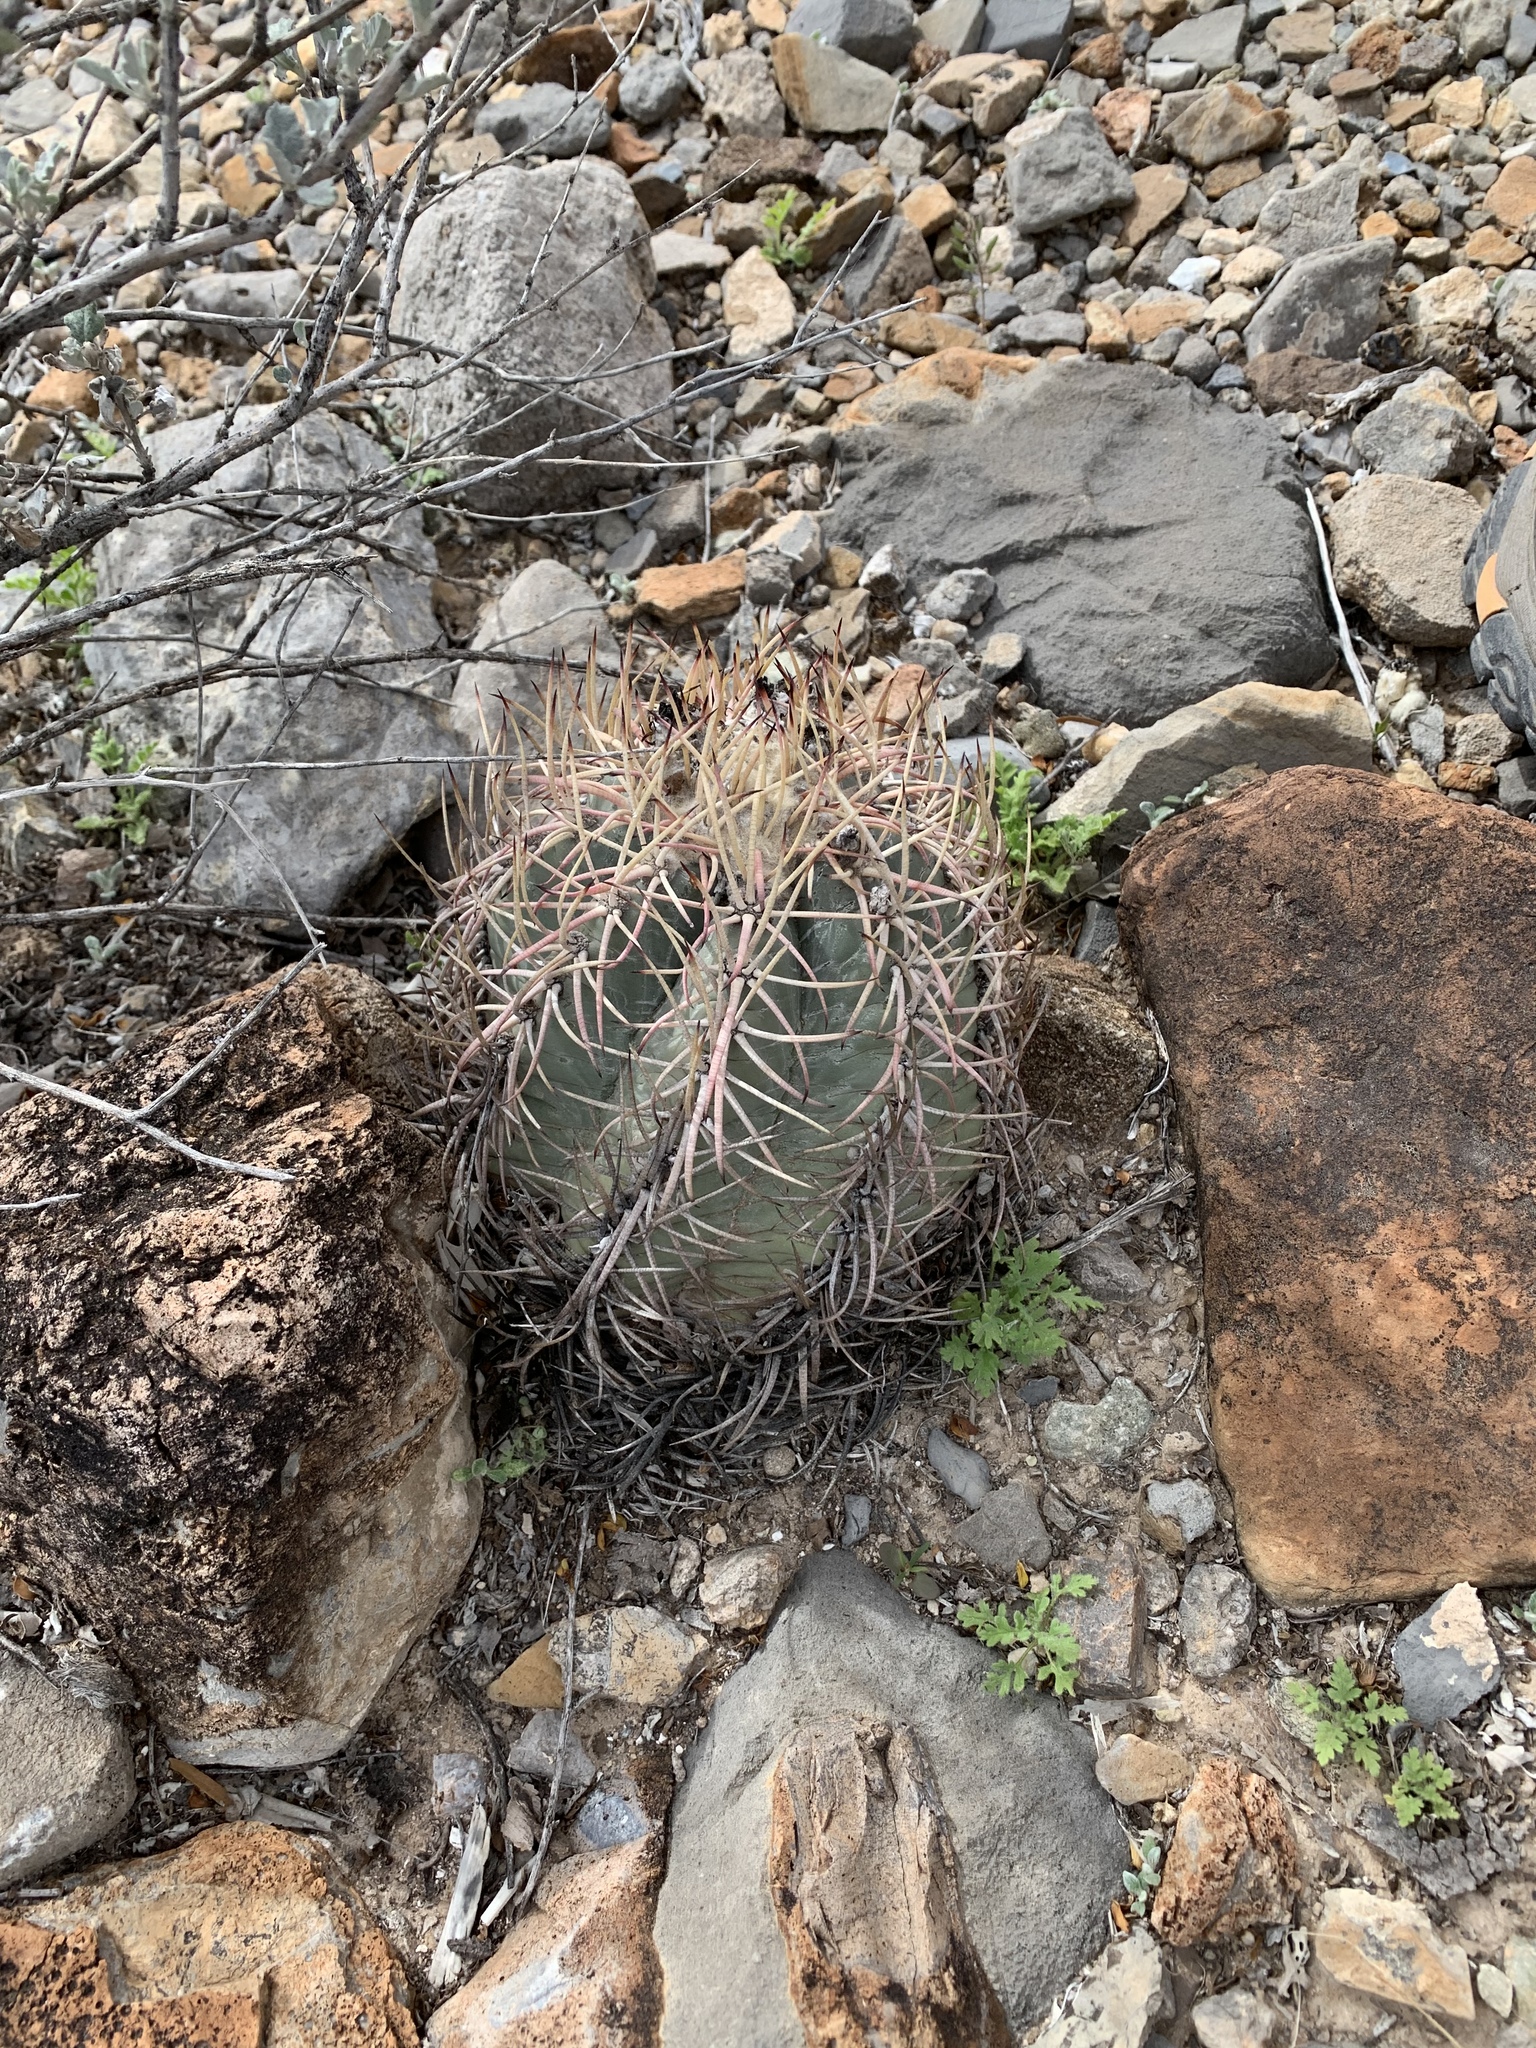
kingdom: Plantae
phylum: Tracheophyta
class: Magnoliopsida
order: Caryophyllales
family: Cactaceae
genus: Echinocactus
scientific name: Echinocactus horizonthalonius
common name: Devilshead
